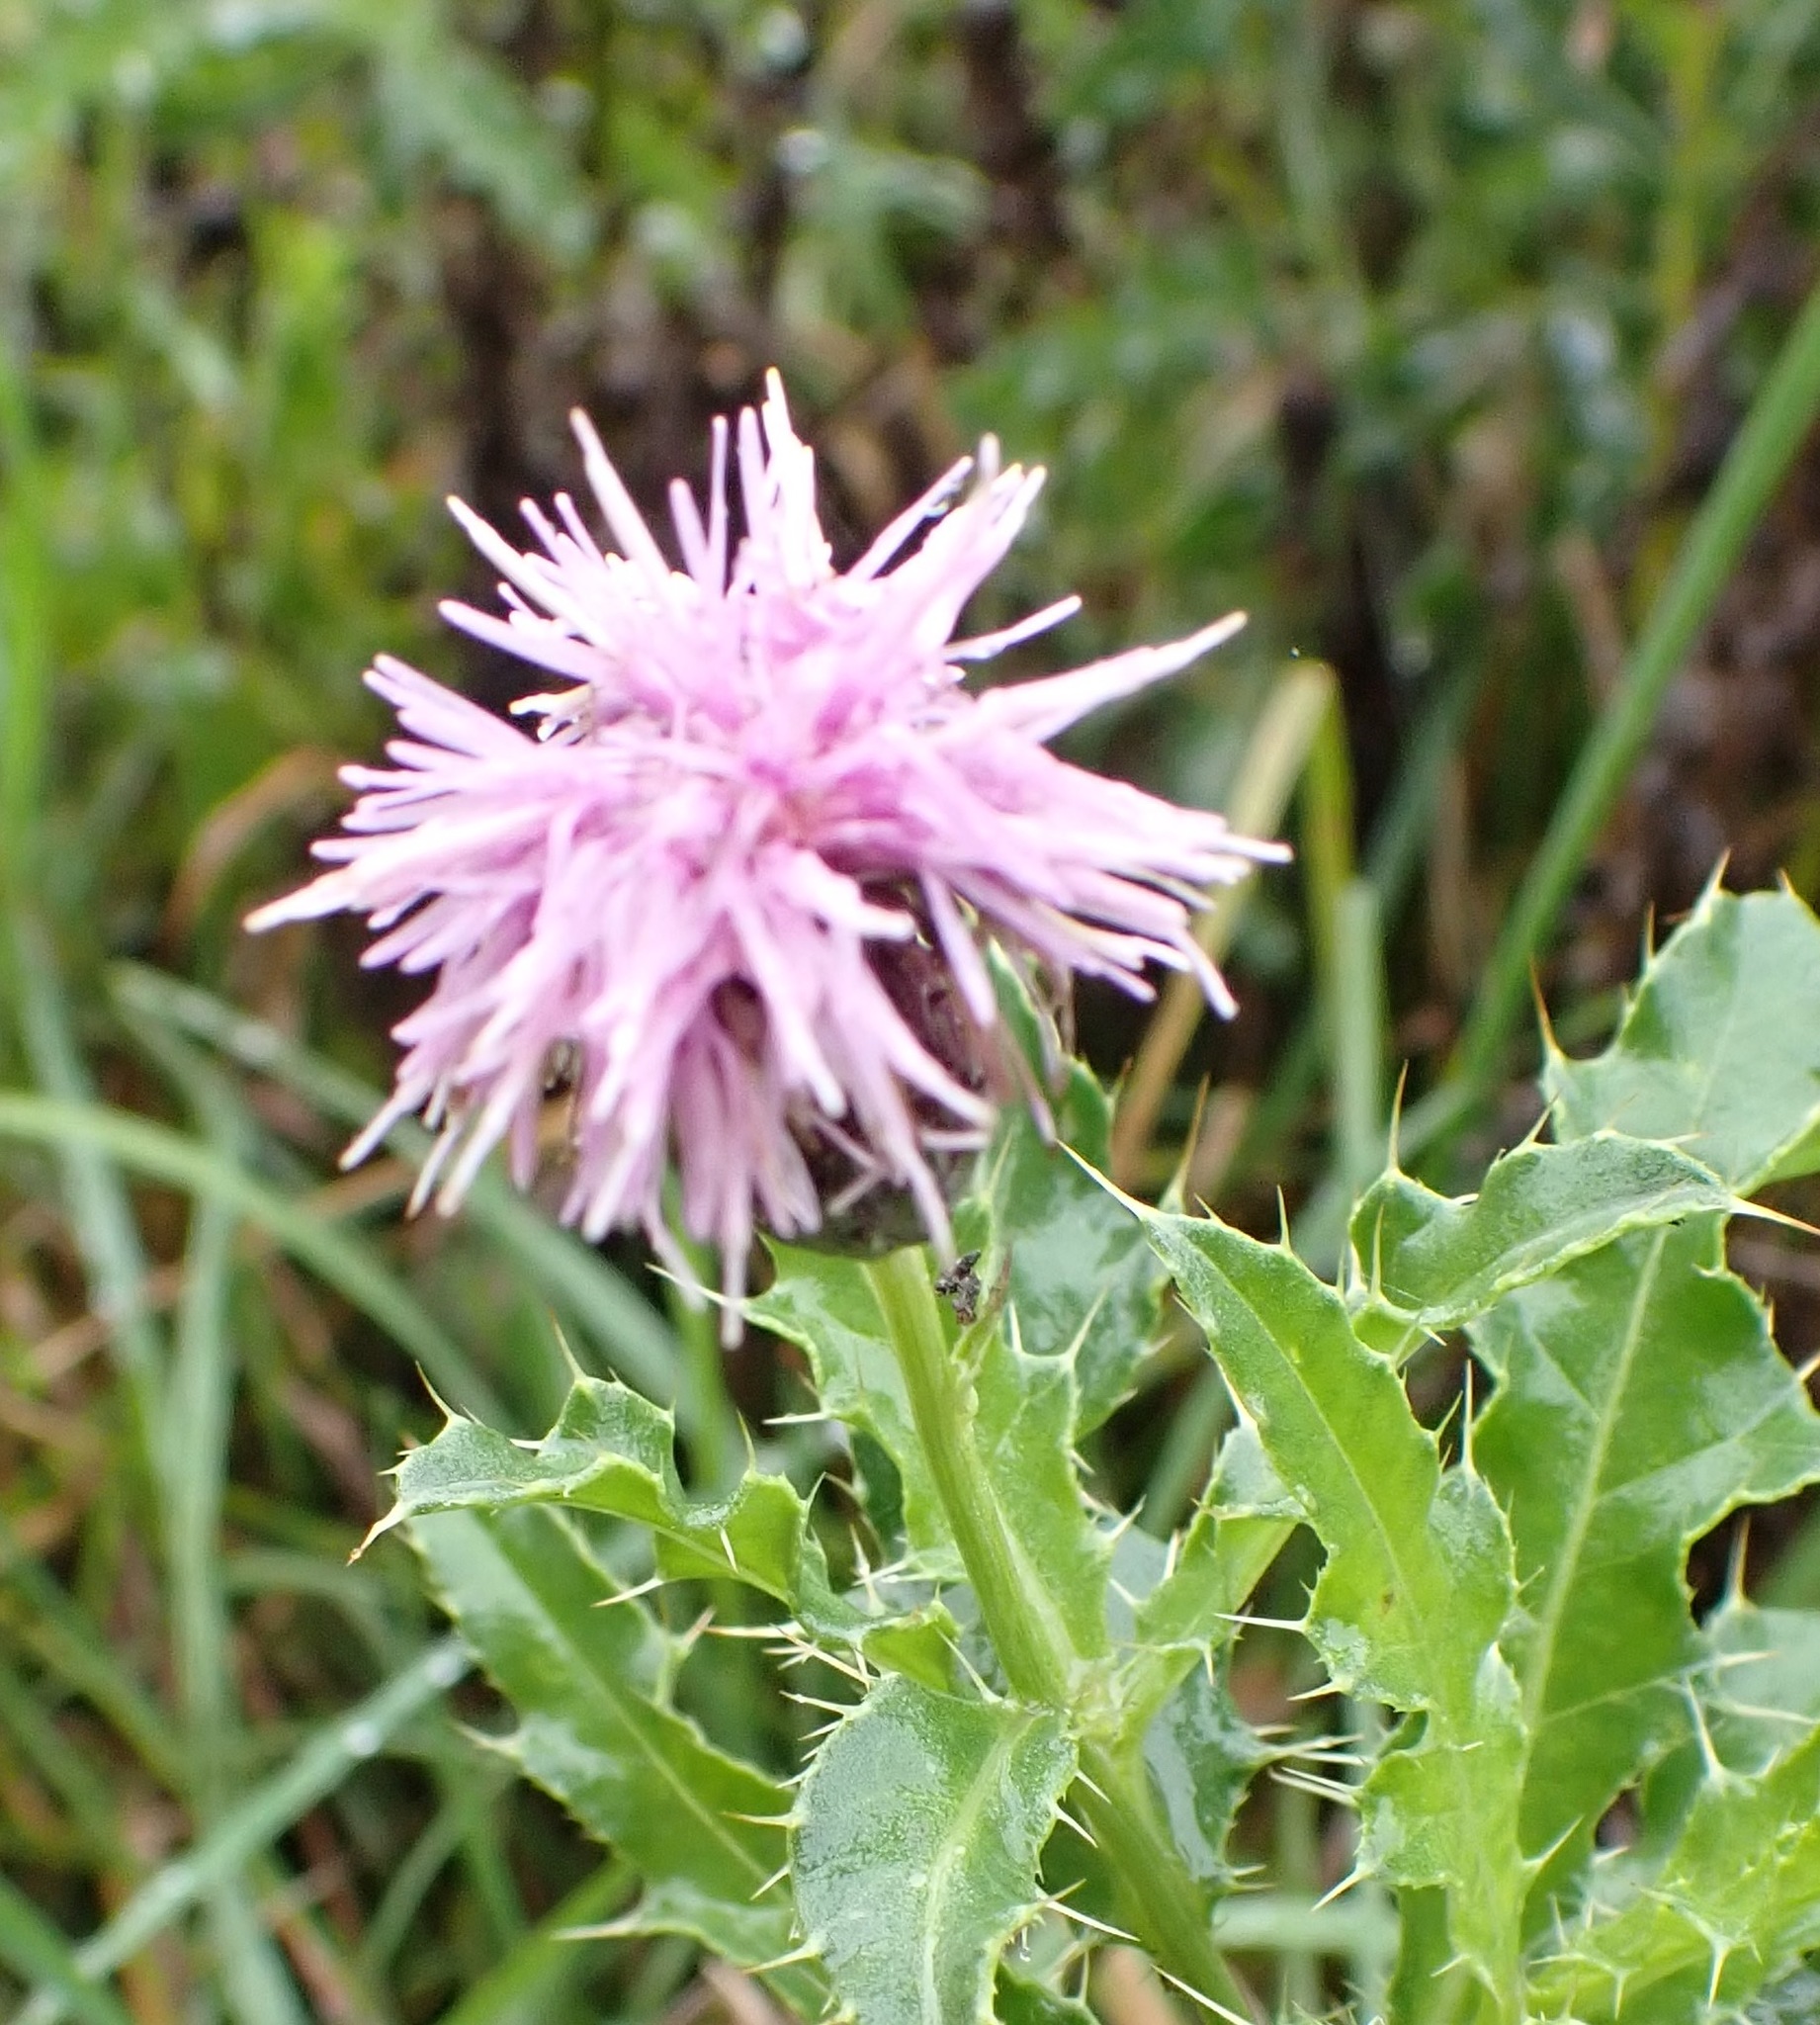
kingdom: Plantae
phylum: Tracheophyta
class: Magnoliopsida
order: Asterales
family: Asteraceae
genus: Cirsium
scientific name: Cirsium arvense
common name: Creeping thistle
